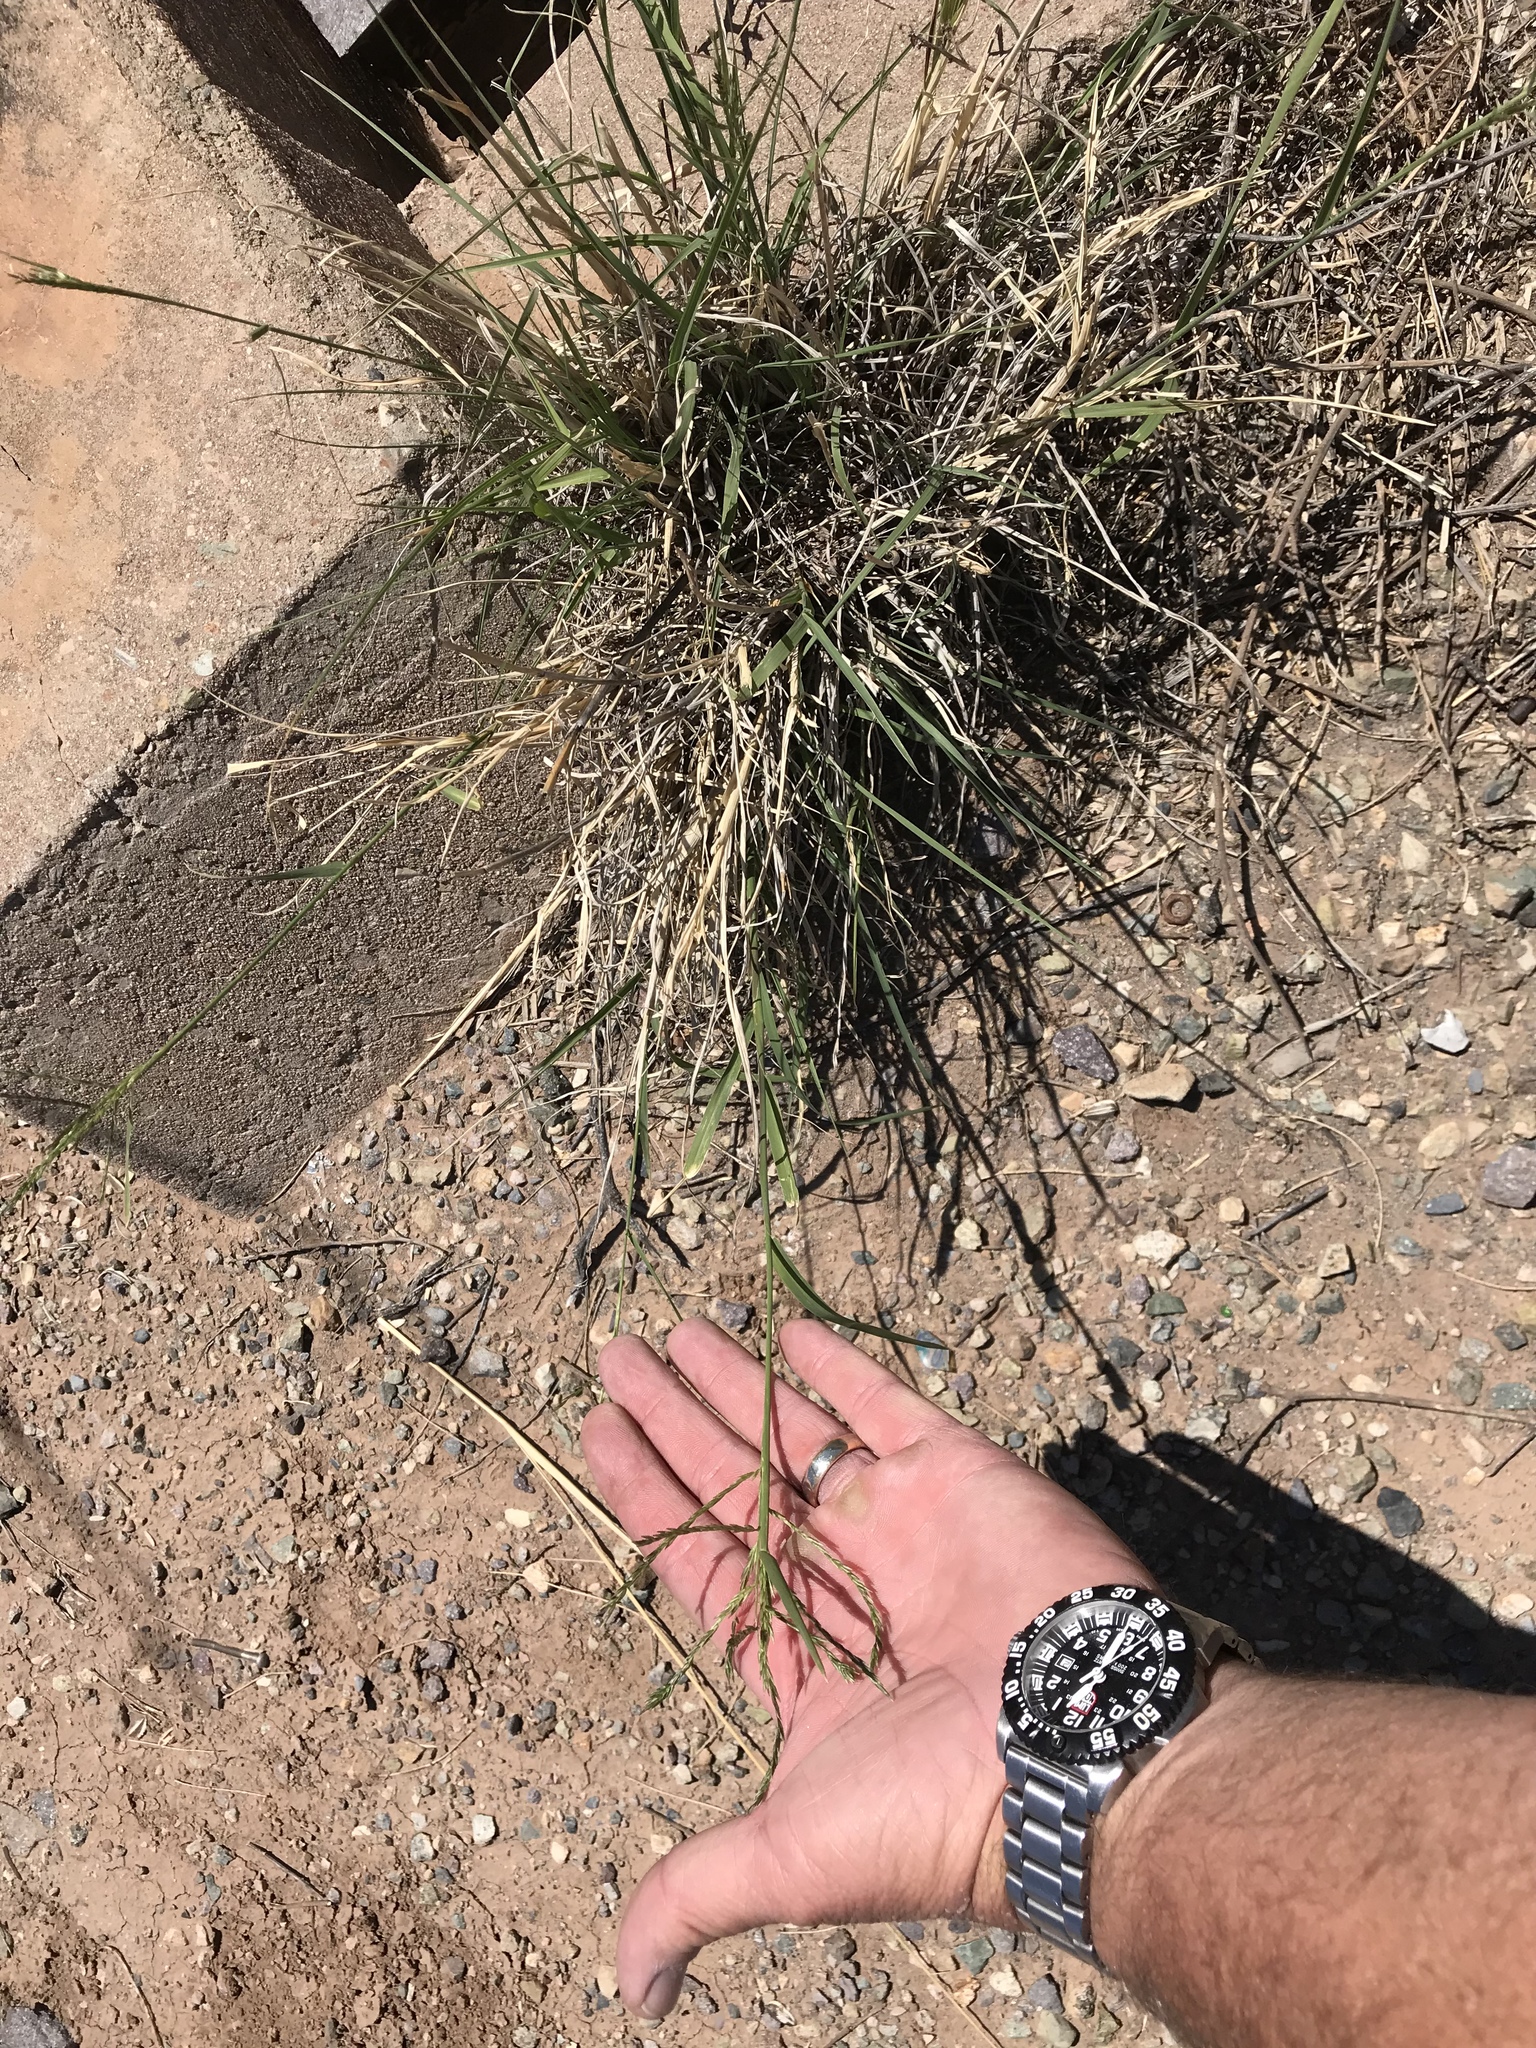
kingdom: Plantae
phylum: Tracheophyta
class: Liliopsida
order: Poales
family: Poaceae
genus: Disakisperma
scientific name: Disakisperma dubium
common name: Green sprangletop
